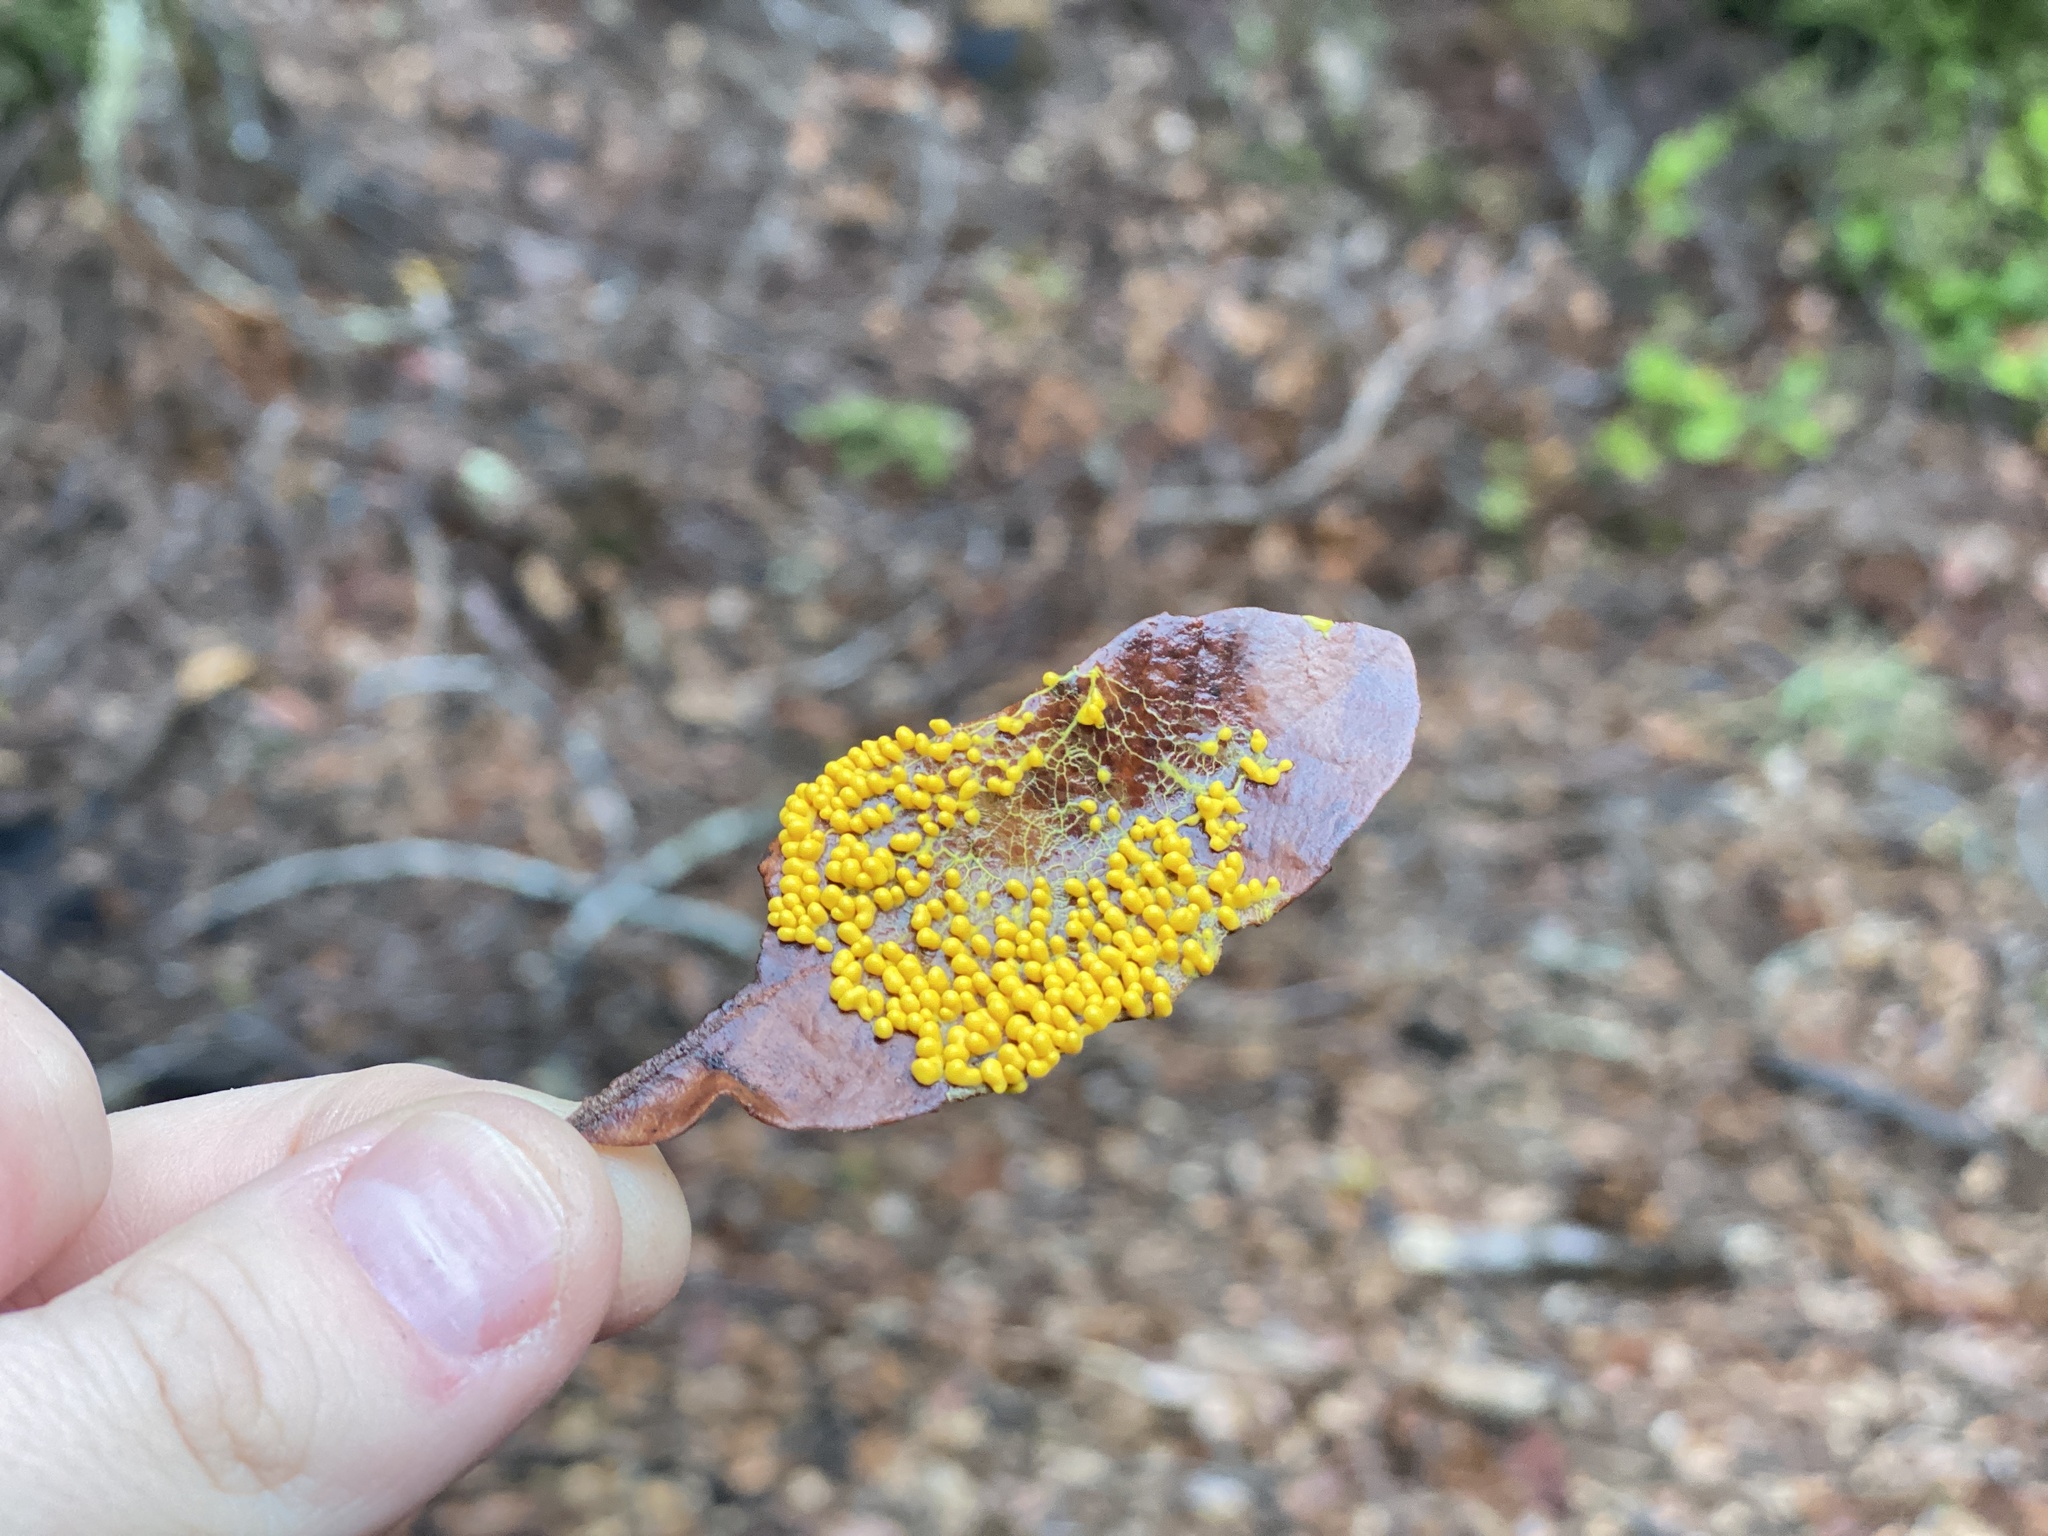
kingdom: Protozoa
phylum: Mycetozoa
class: Myxomycetes
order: Physarales
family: Physaraceae
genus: Leocarpus
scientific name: Leocarpus fragilis
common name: Insect-egg slime
